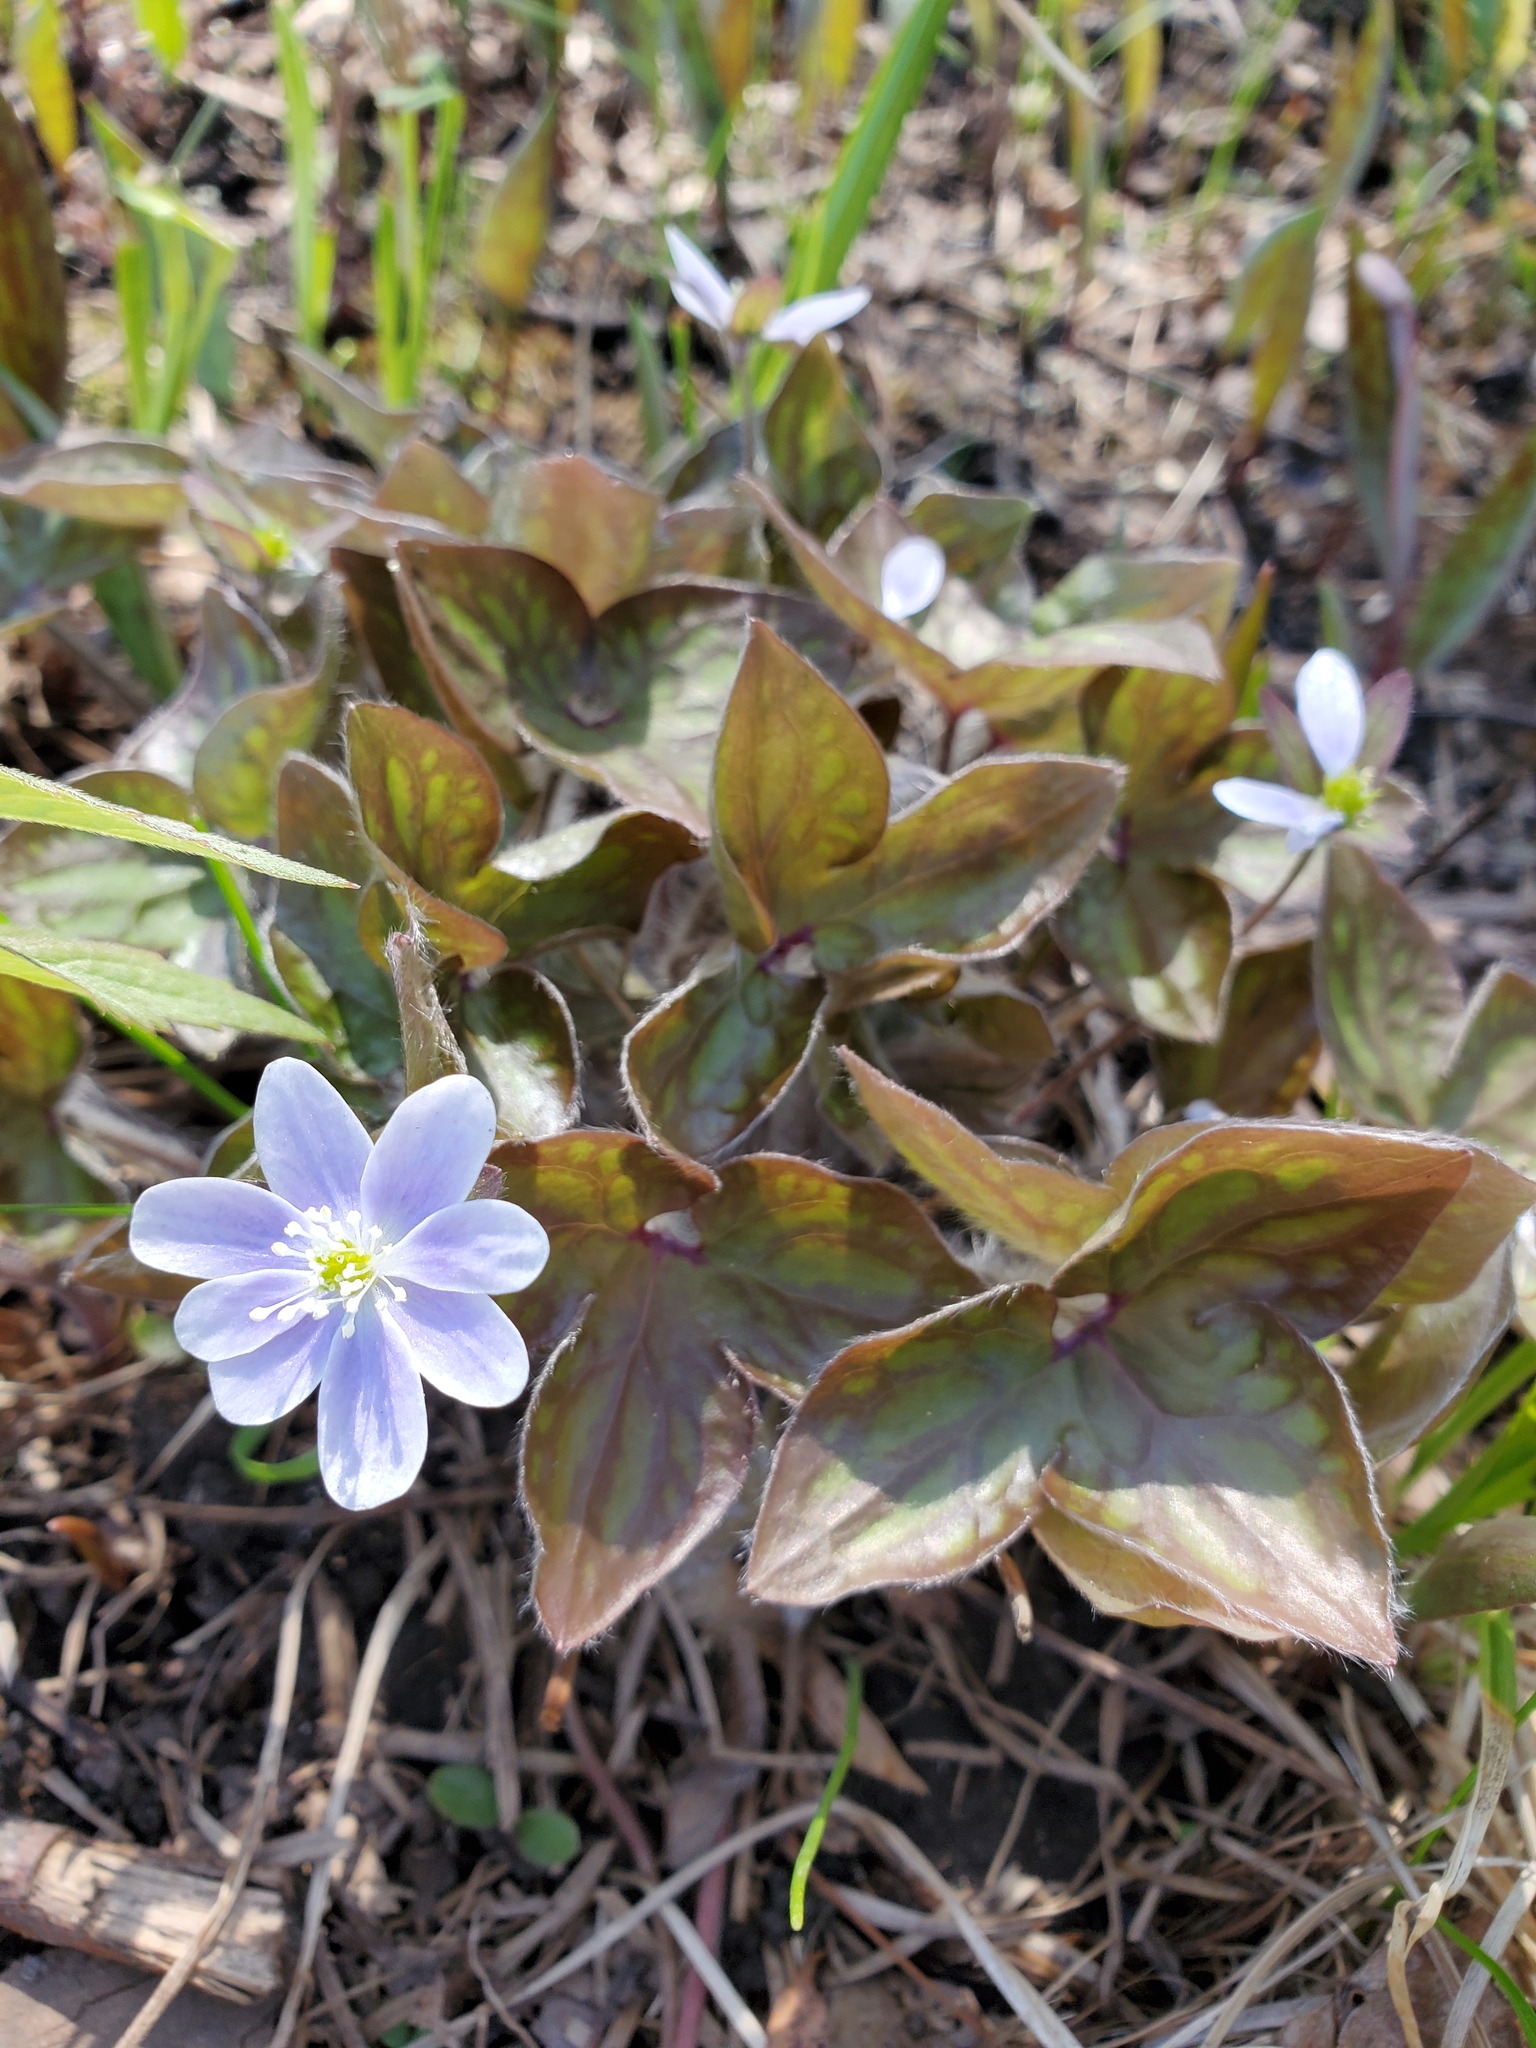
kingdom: Plantae
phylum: Tracheophyta
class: Magnoliopsida
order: Ranunculales
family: Ranunculaceae
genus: Hepatica
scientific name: Hepatica acutiloba
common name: Sharp-lobed hepatica
